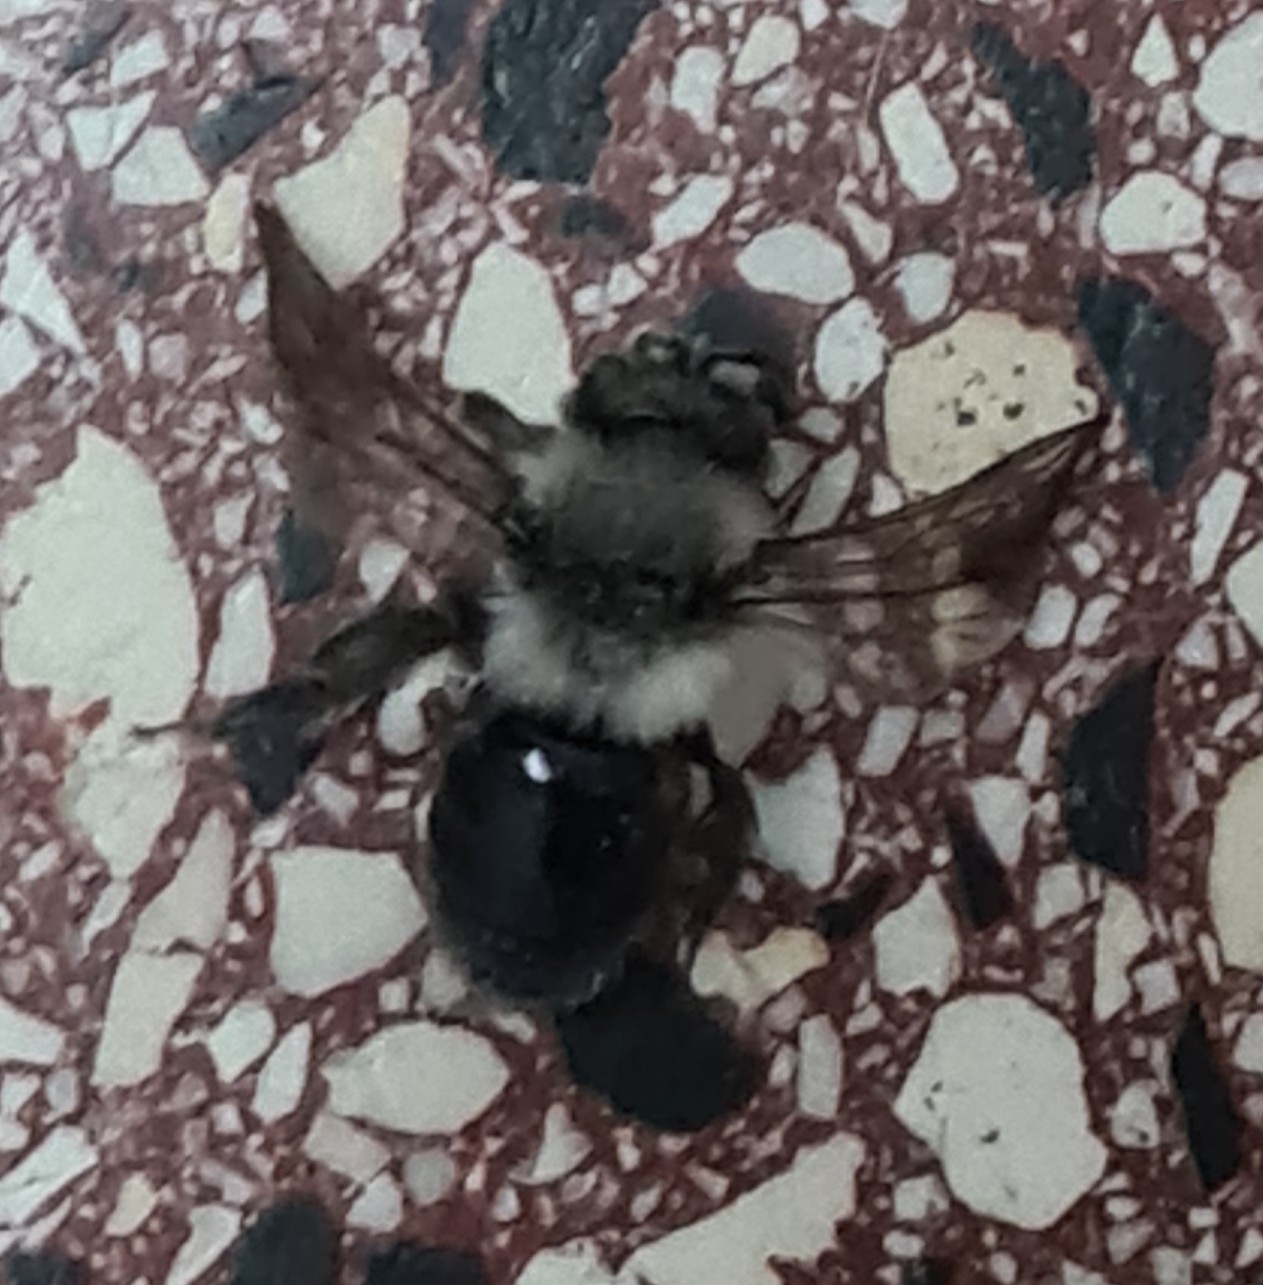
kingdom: Animalia
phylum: Arthropoda
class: Insecta
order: Hymenoptera
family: Andrenidae
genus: Andrena
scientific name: Andrena cineraria
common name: Ashy mining bee
